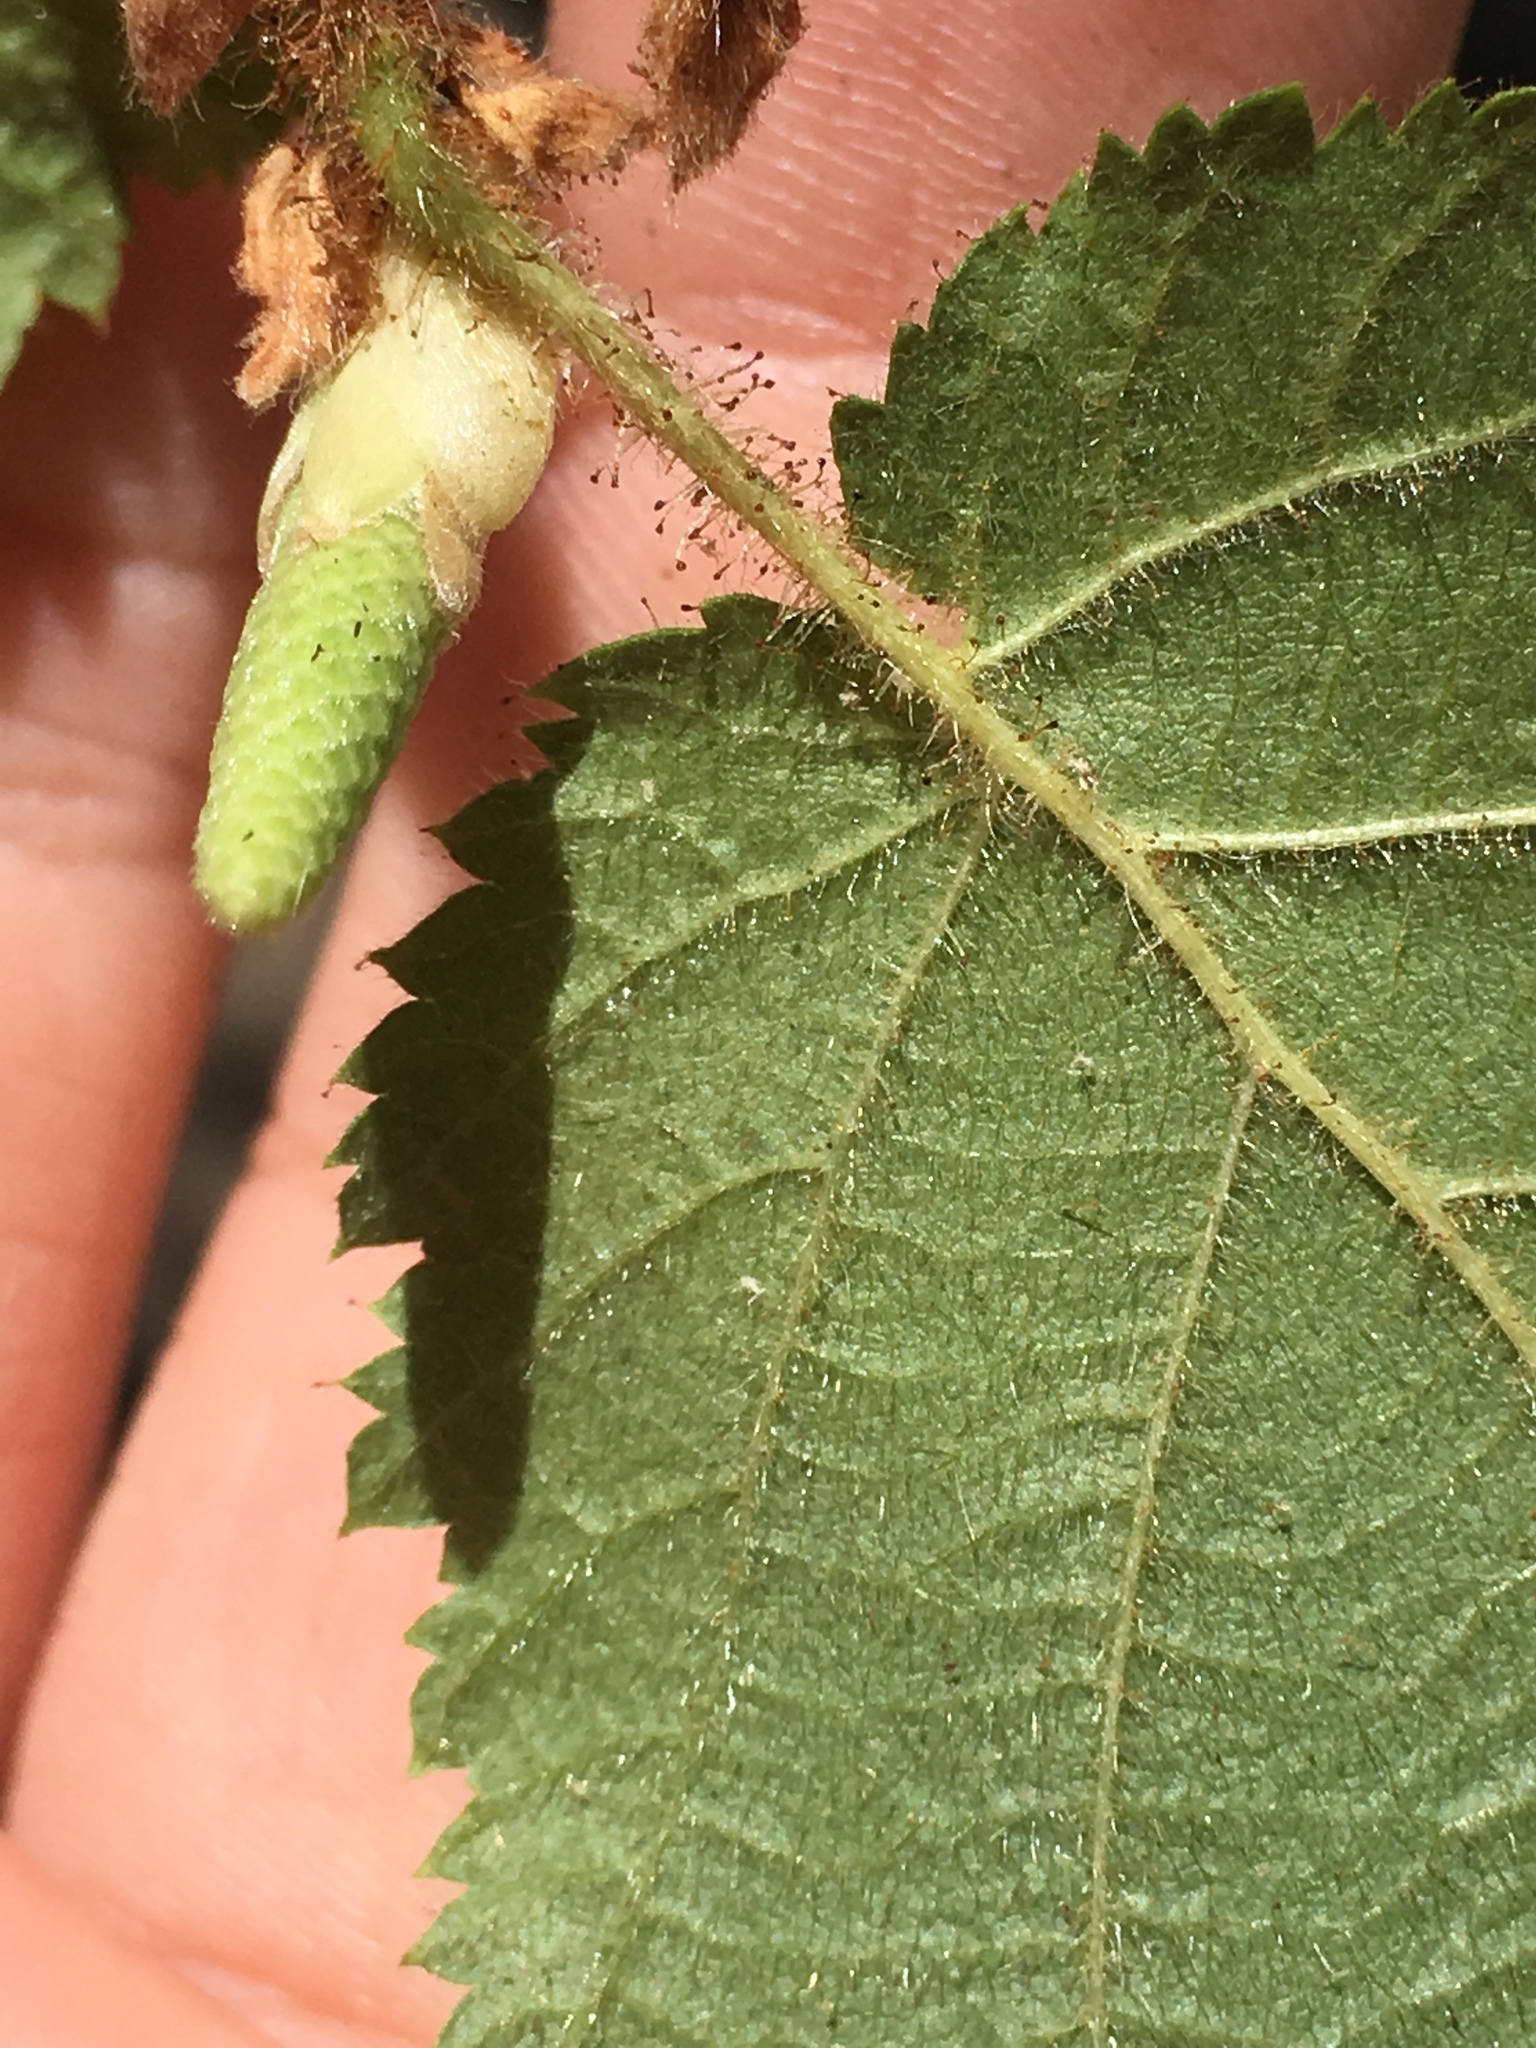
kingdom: Plantae
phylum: Tracheophyta
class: Magnoliopsida
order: Fagales
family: Betulaceae
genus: Corylus
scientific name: Corylus cornuta
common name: Beaked hazel
